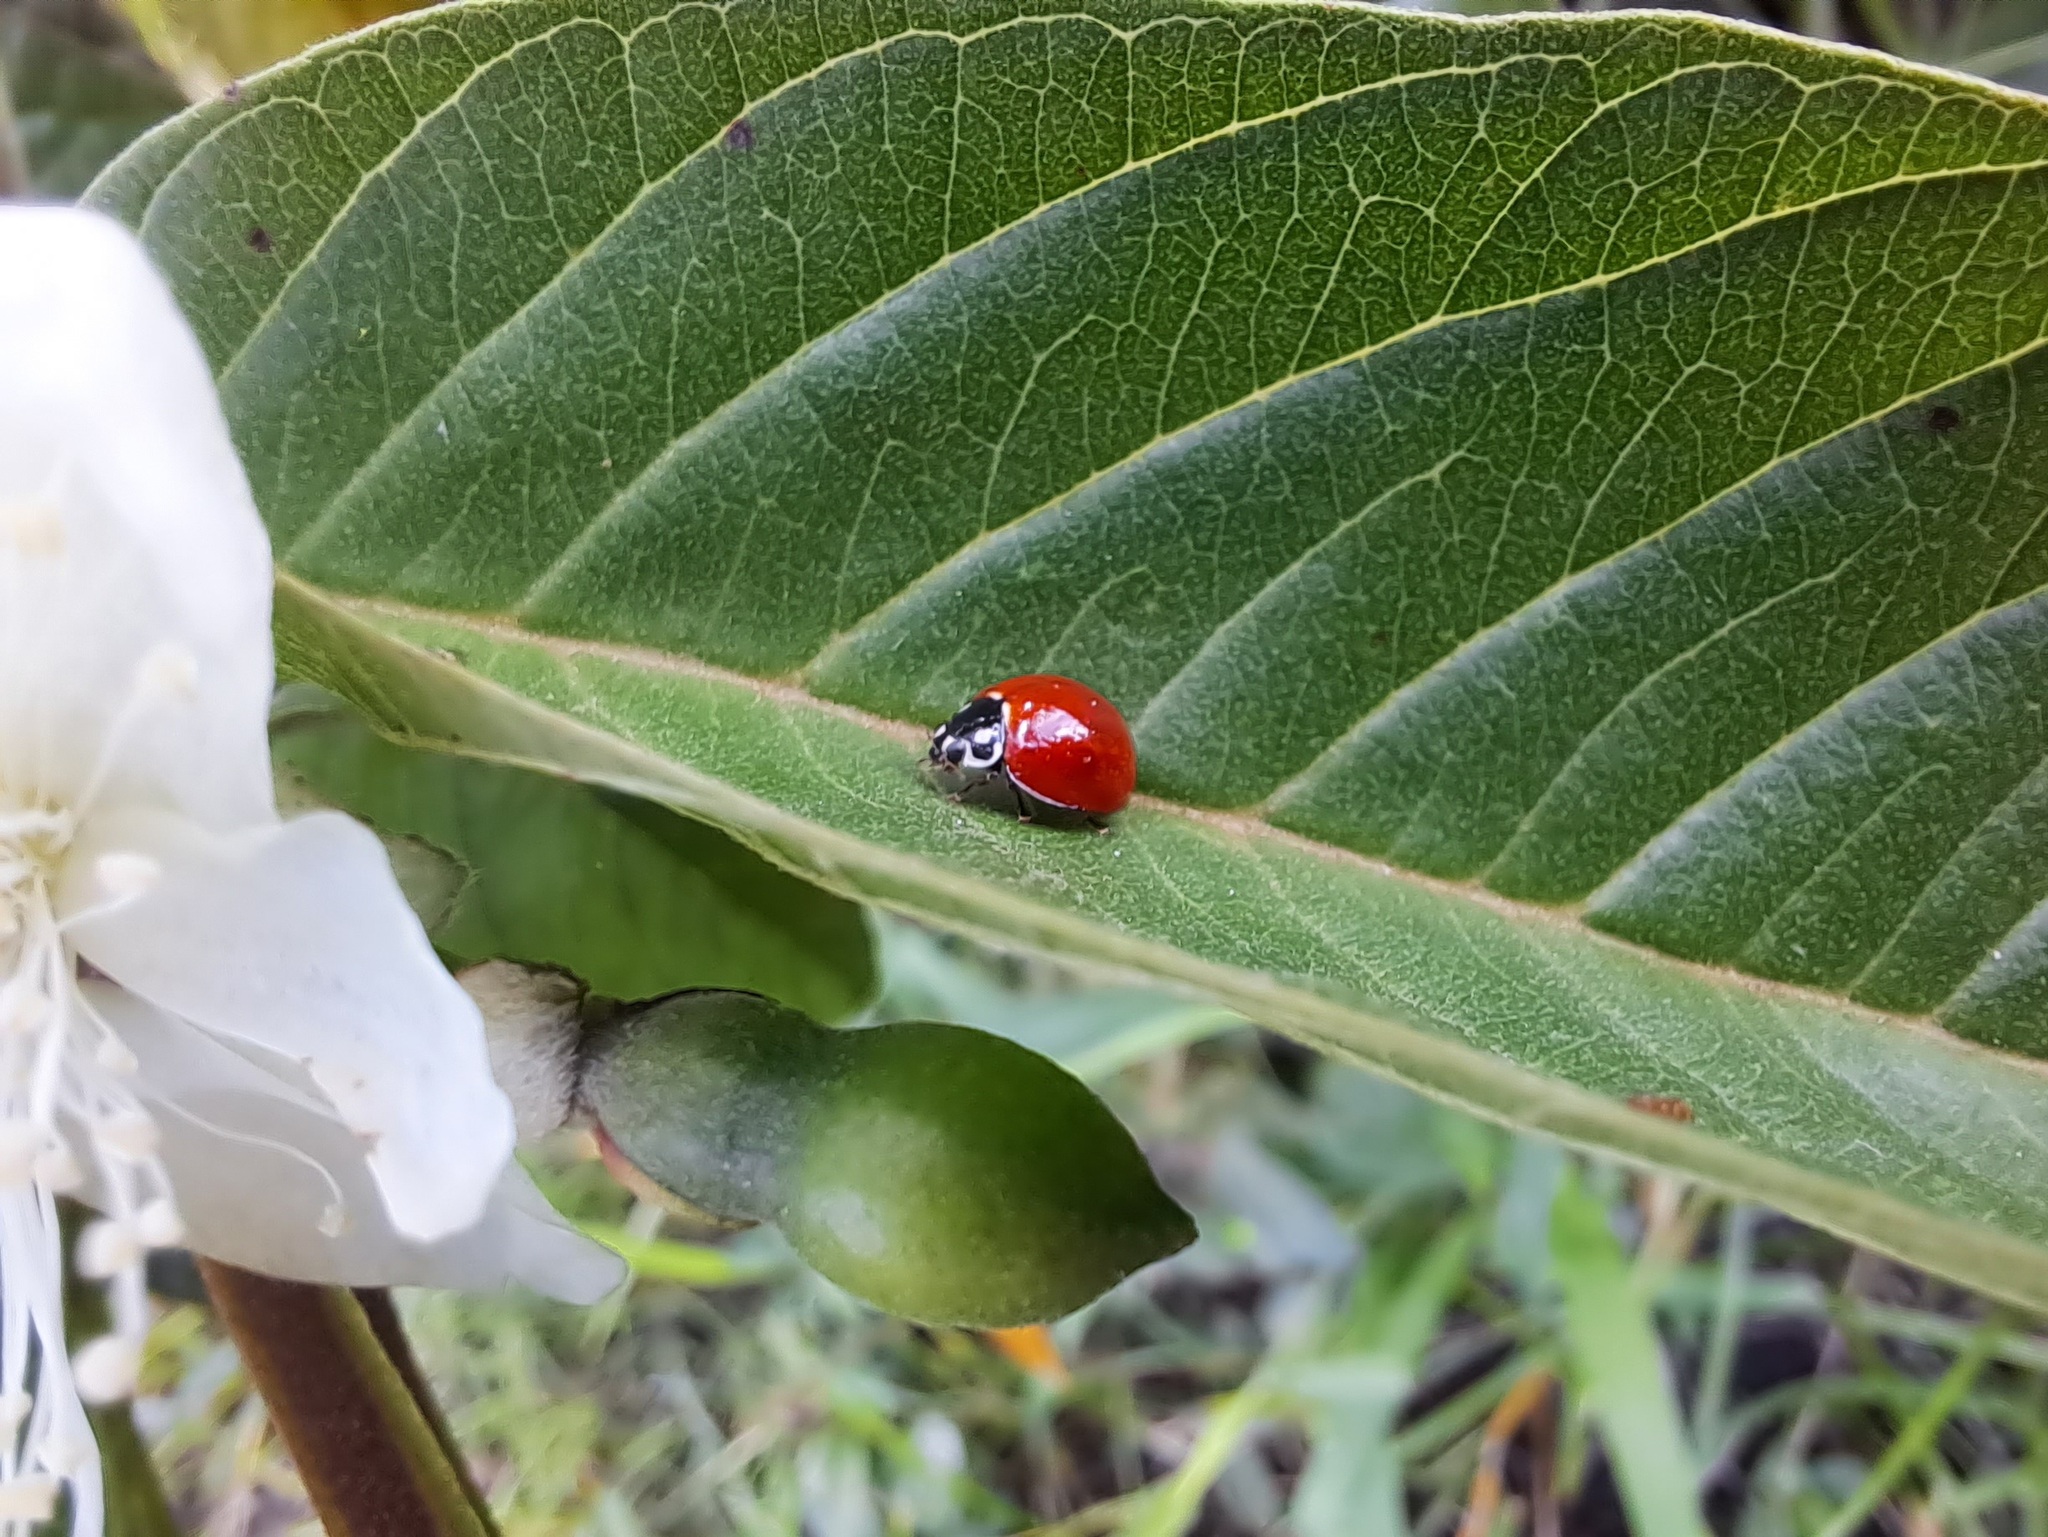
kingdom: Animalia
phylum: Arthropoda
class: Insecta
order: Coleoptera
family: Coccinellidae
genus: Cycloneda
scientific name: Cycloneda sanguinea
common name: Ladybird beetle
